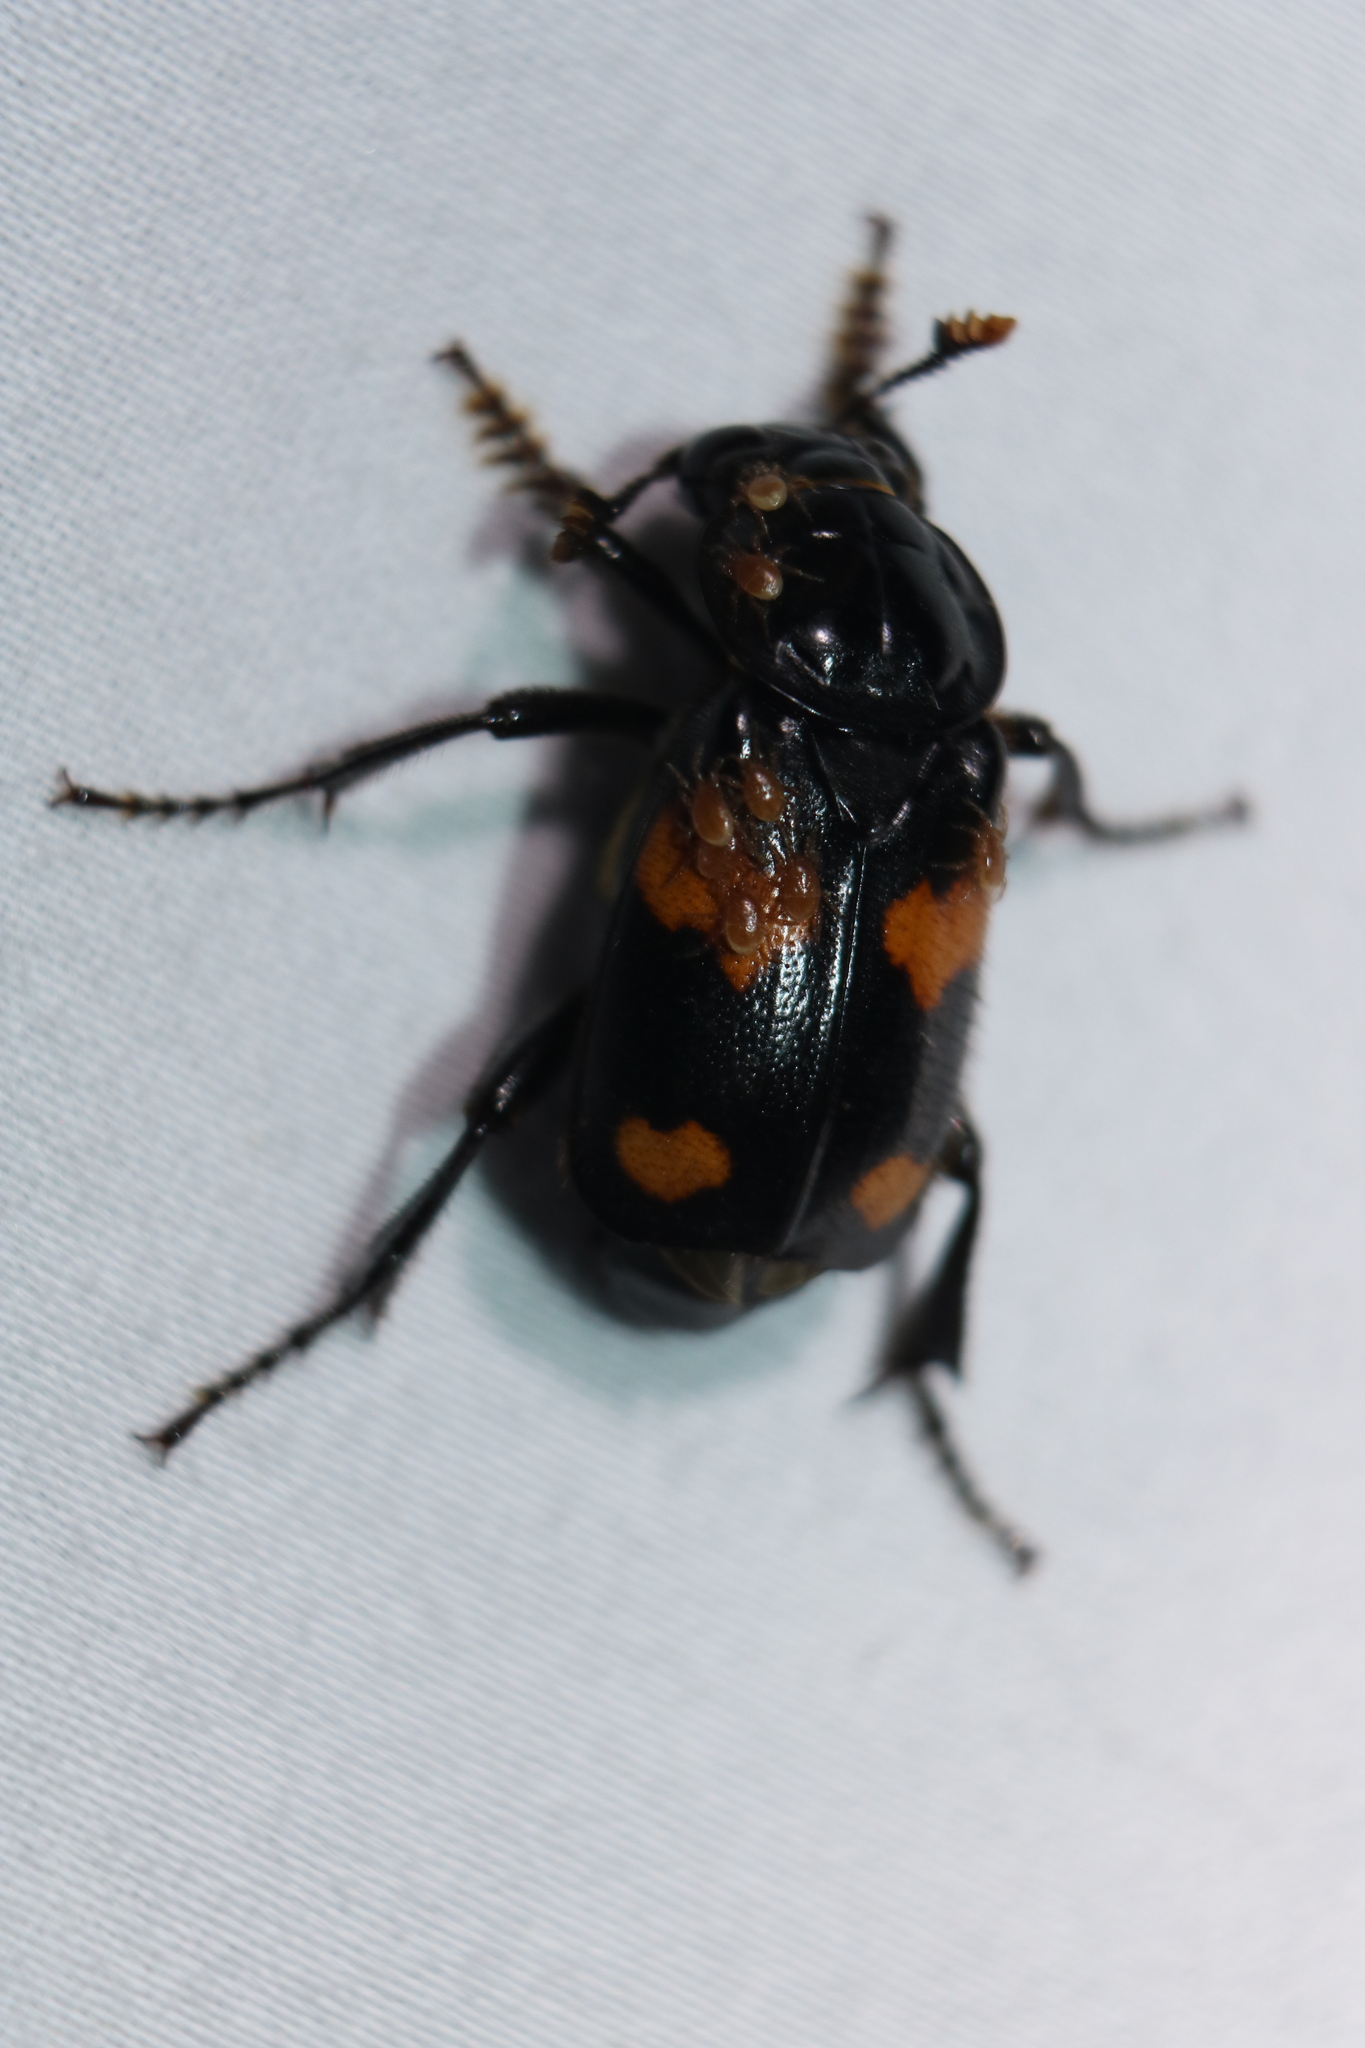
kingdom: Animalia
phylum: Arthropoda
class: Insecta
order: Coleoptera
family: Staphylinidae
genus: Nicrophorus
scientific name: Nicrophorus orbicollis
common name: Roundneck sexton beetle
